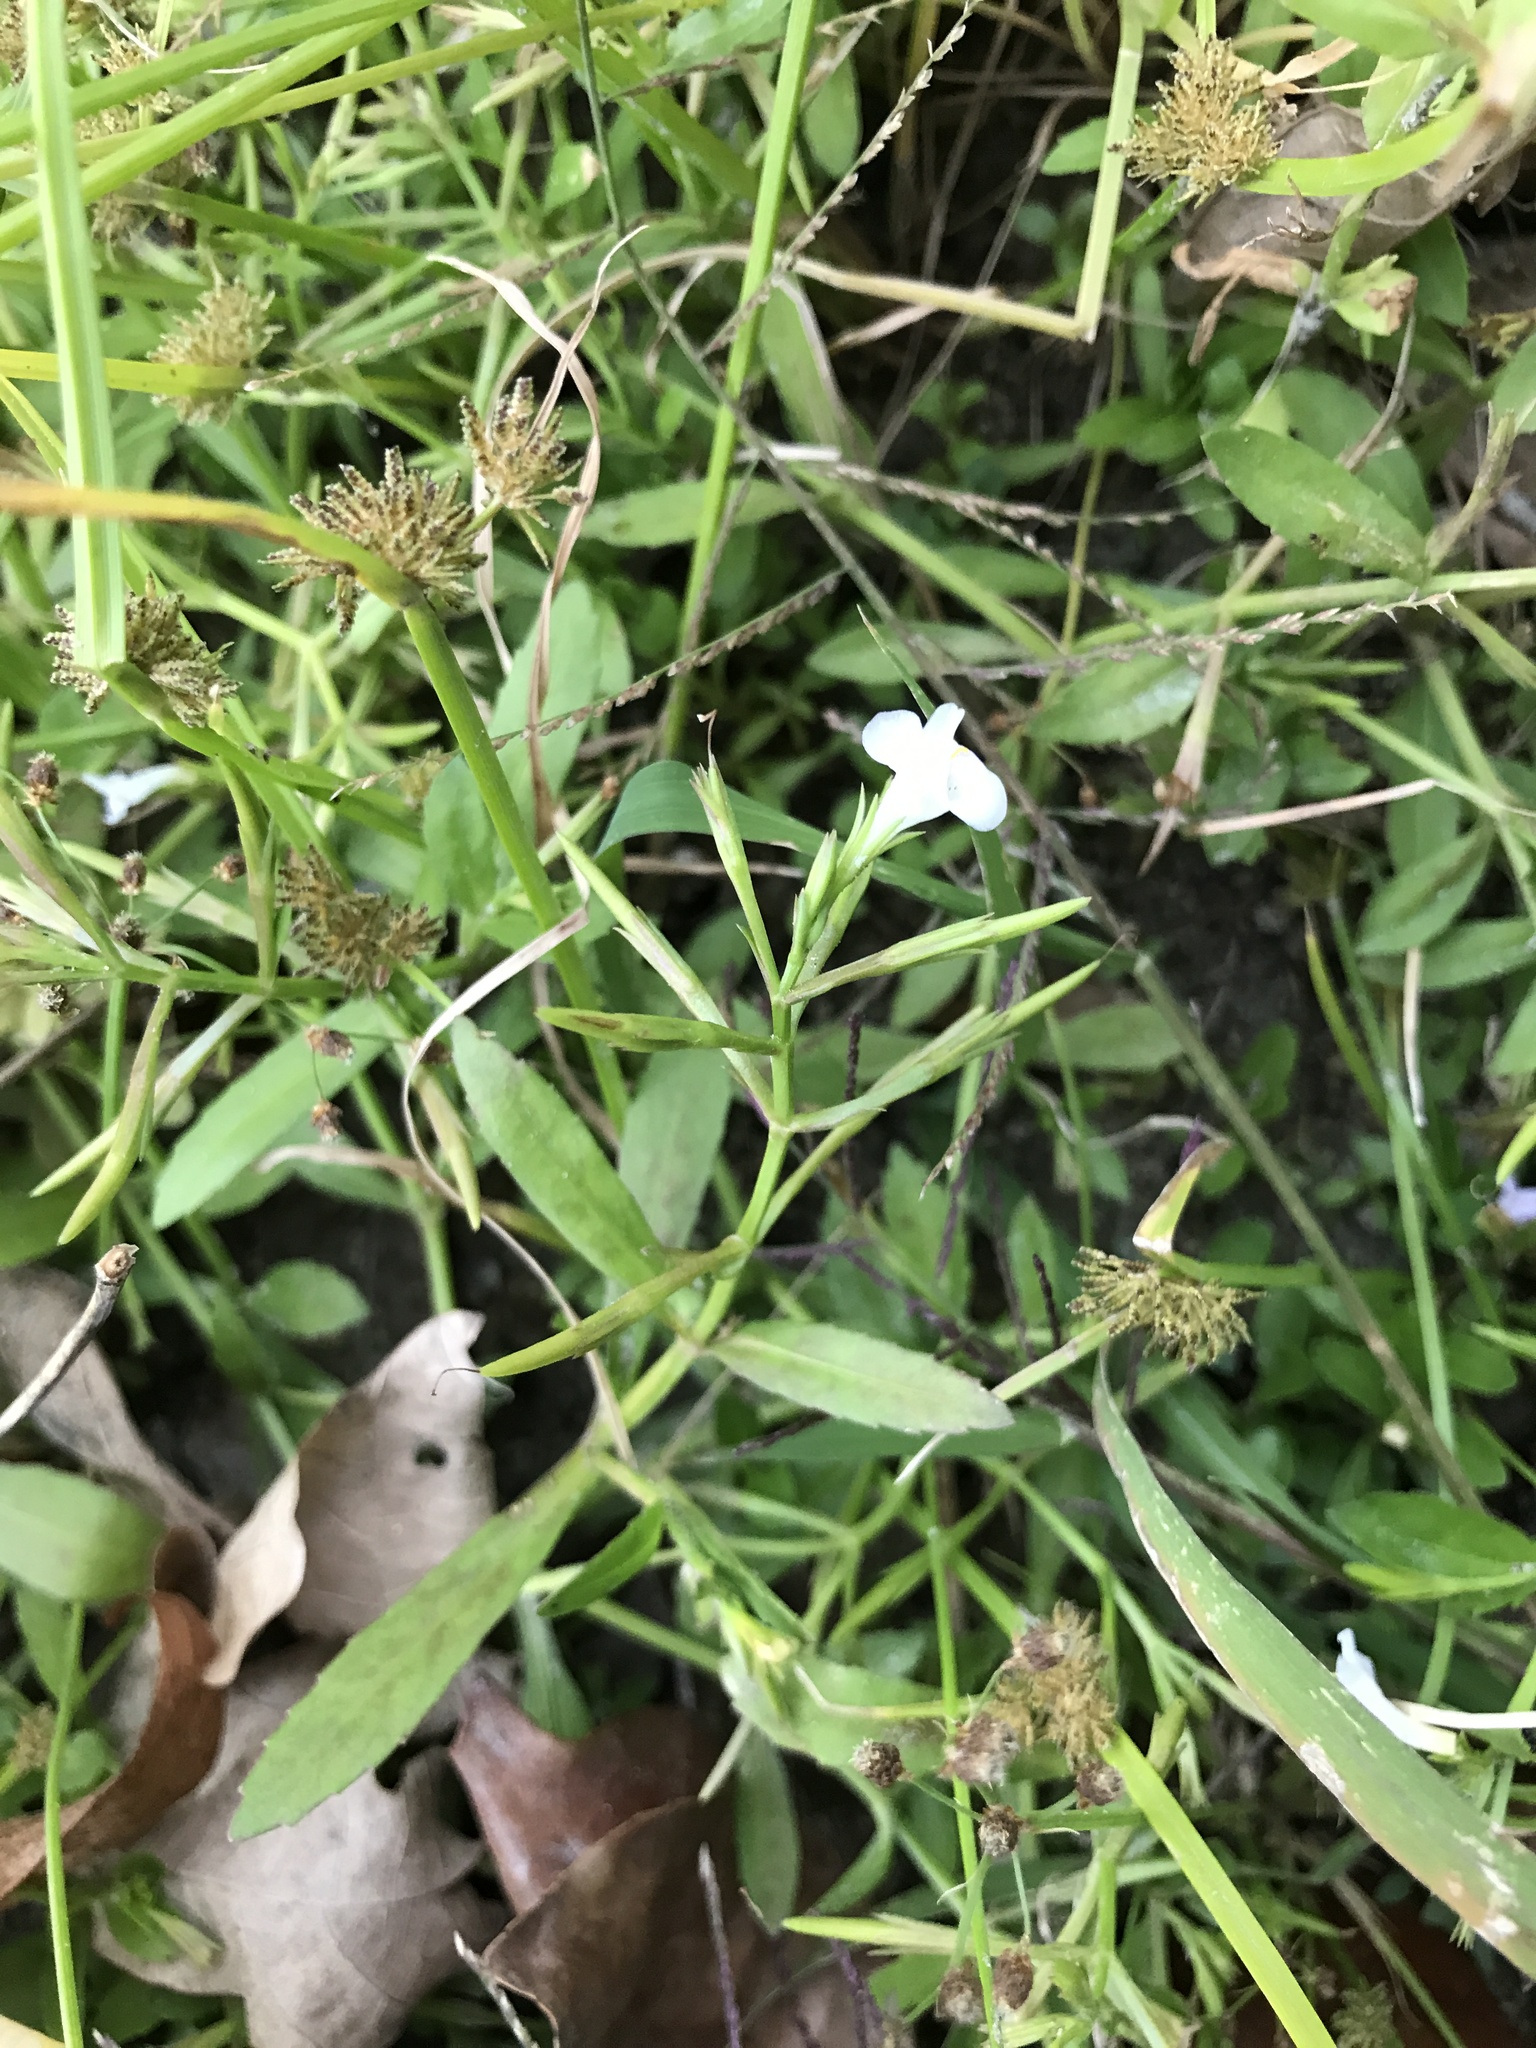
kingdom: Plantae
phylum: Tracheophyta
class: Magnoliopsida
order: Lamiales
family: Linderniaceae
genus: Bonnaya
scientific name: Bonnaya antipoda
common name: Sparrow false pimpernel
